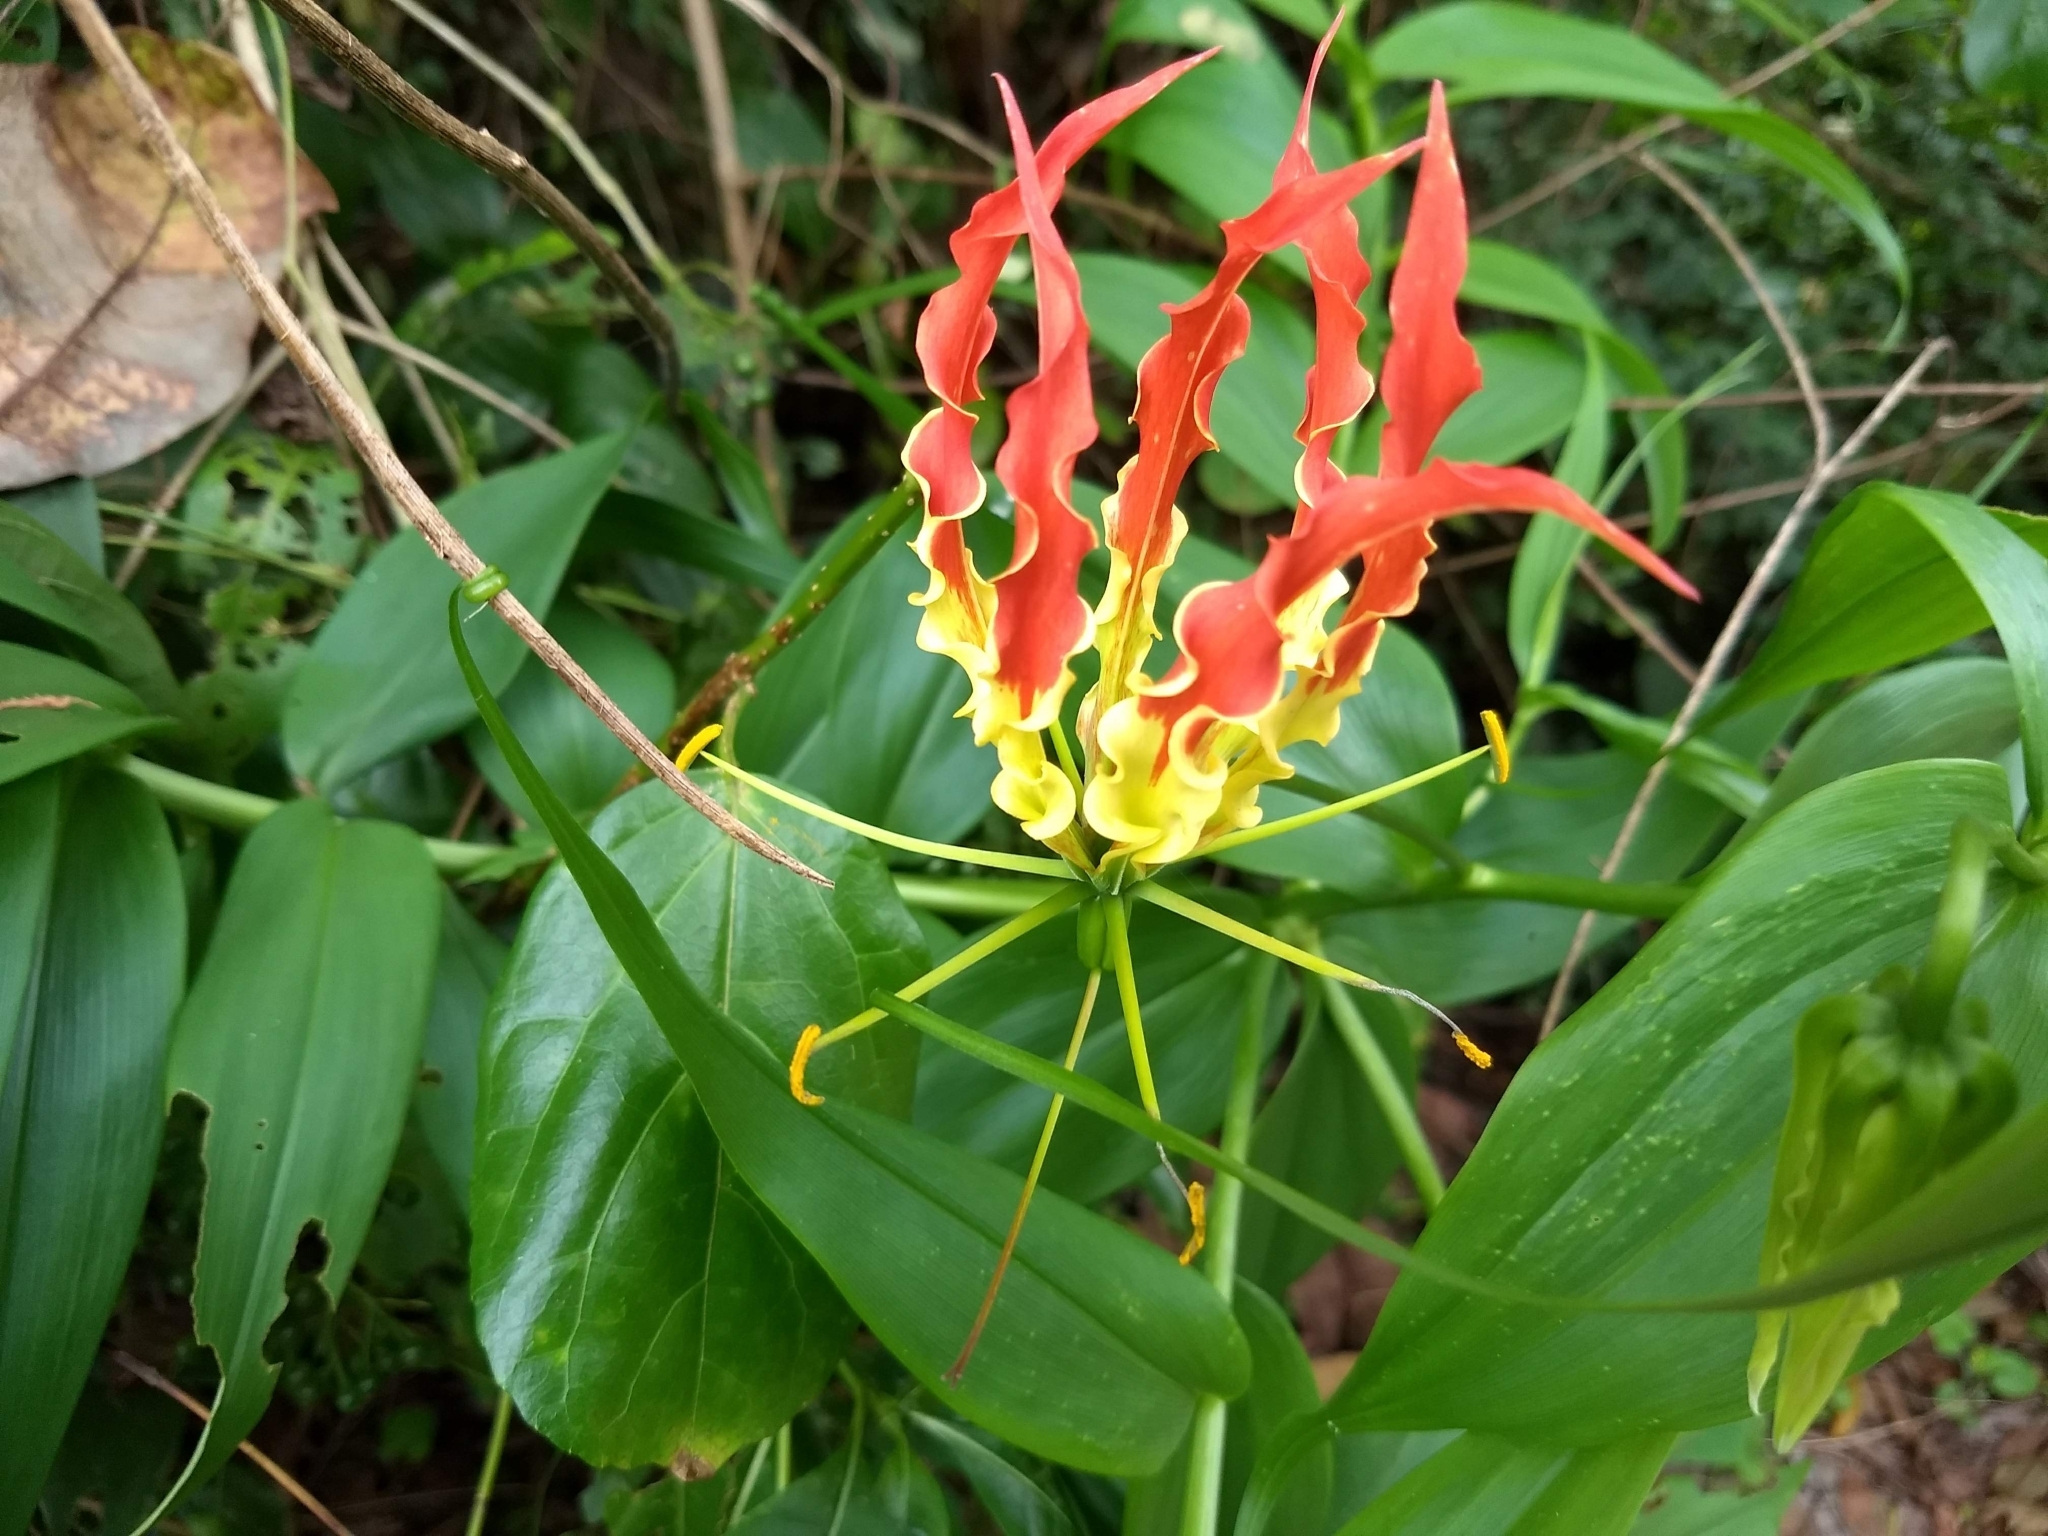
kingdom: Plantae
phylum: Tracheophyta
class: Liliopsida
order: Liliales
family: Colchicaceae
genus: Gloriosa
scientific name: Gloriosa superba
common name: Flame lily
